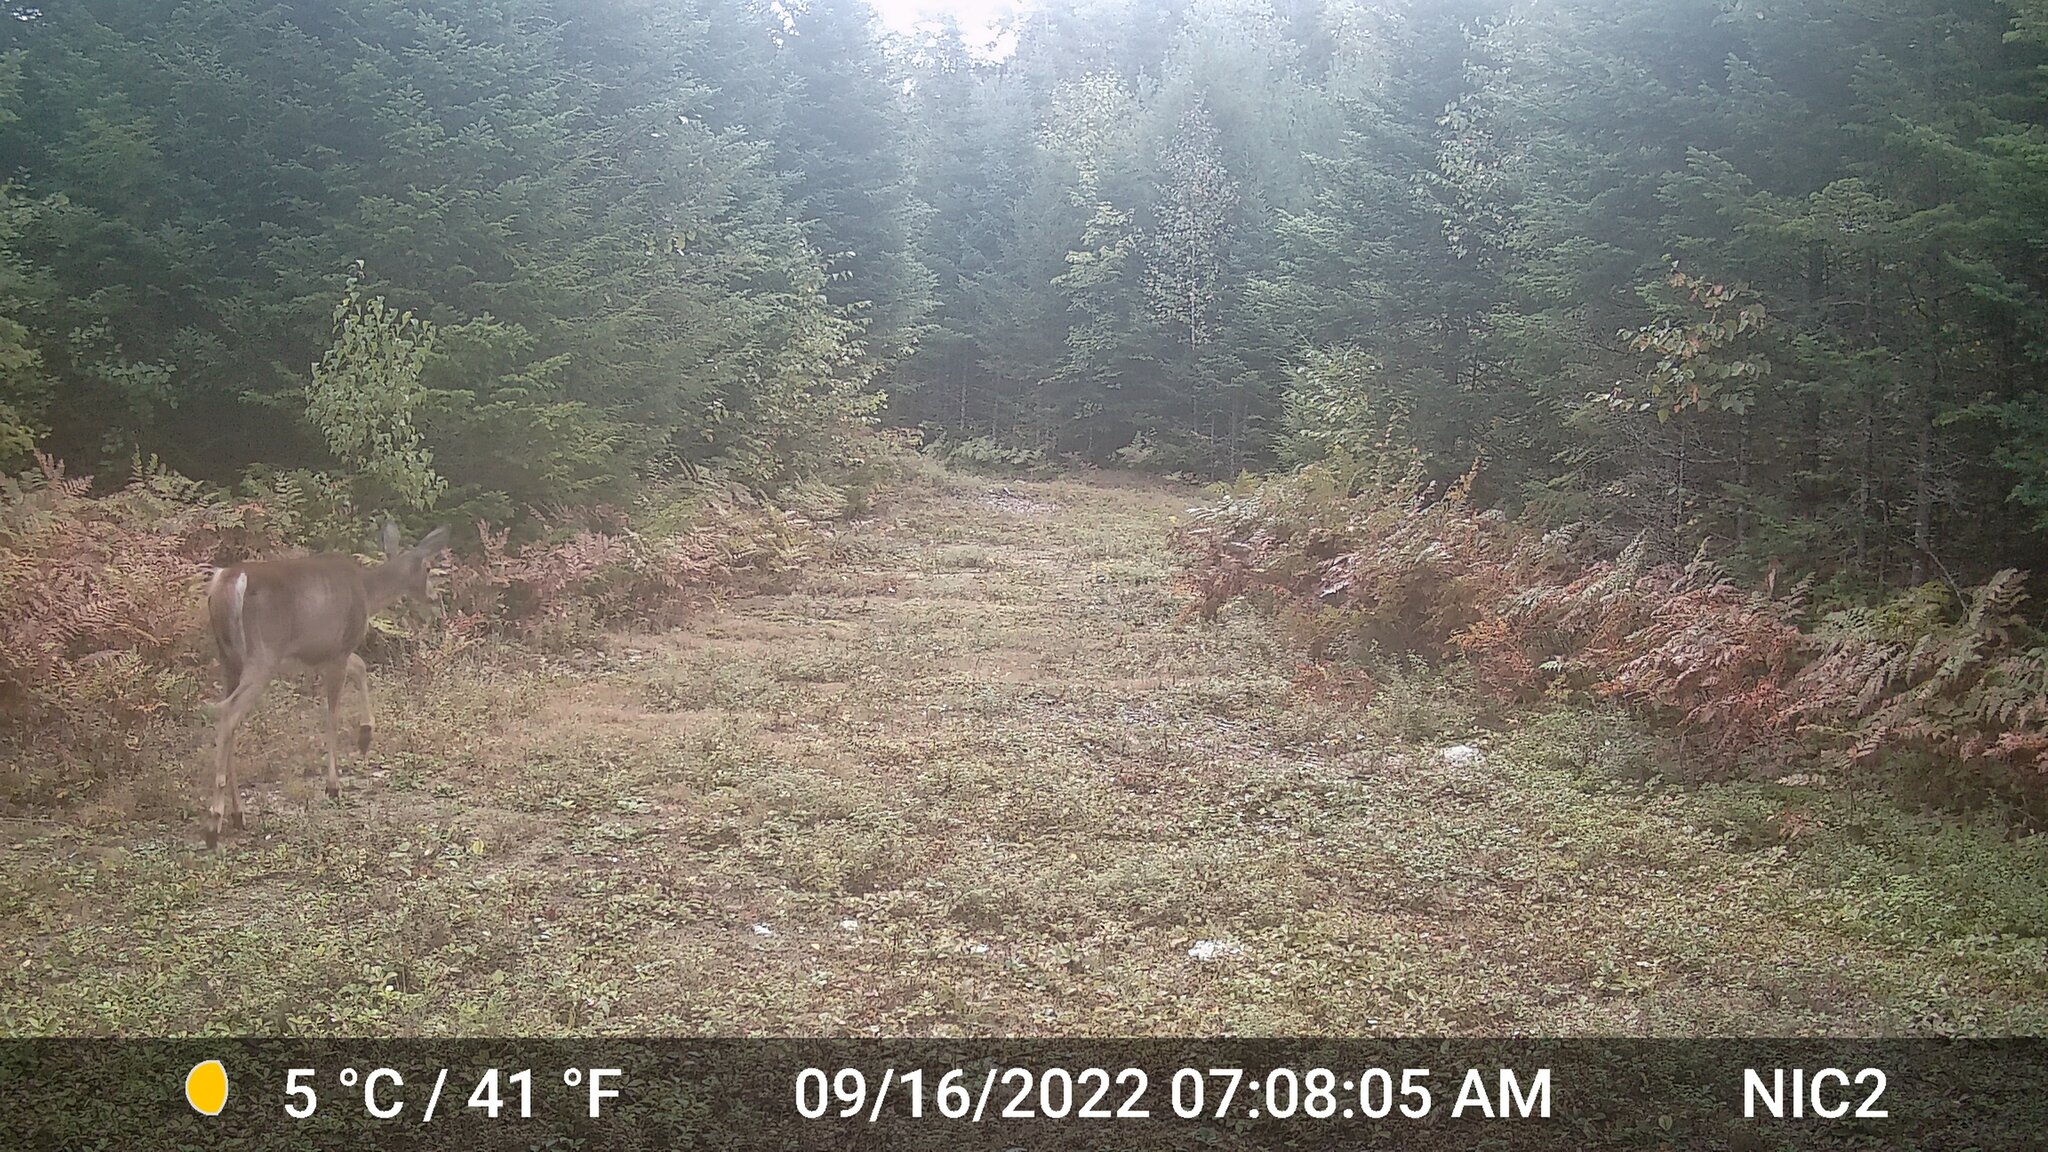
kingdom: Animalia
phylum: Chordata
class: Mammalia
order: Artiodactyla
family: Cervidae
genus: Odocoileus
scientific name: Odocoileus virginianus
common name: White-tailed deer
